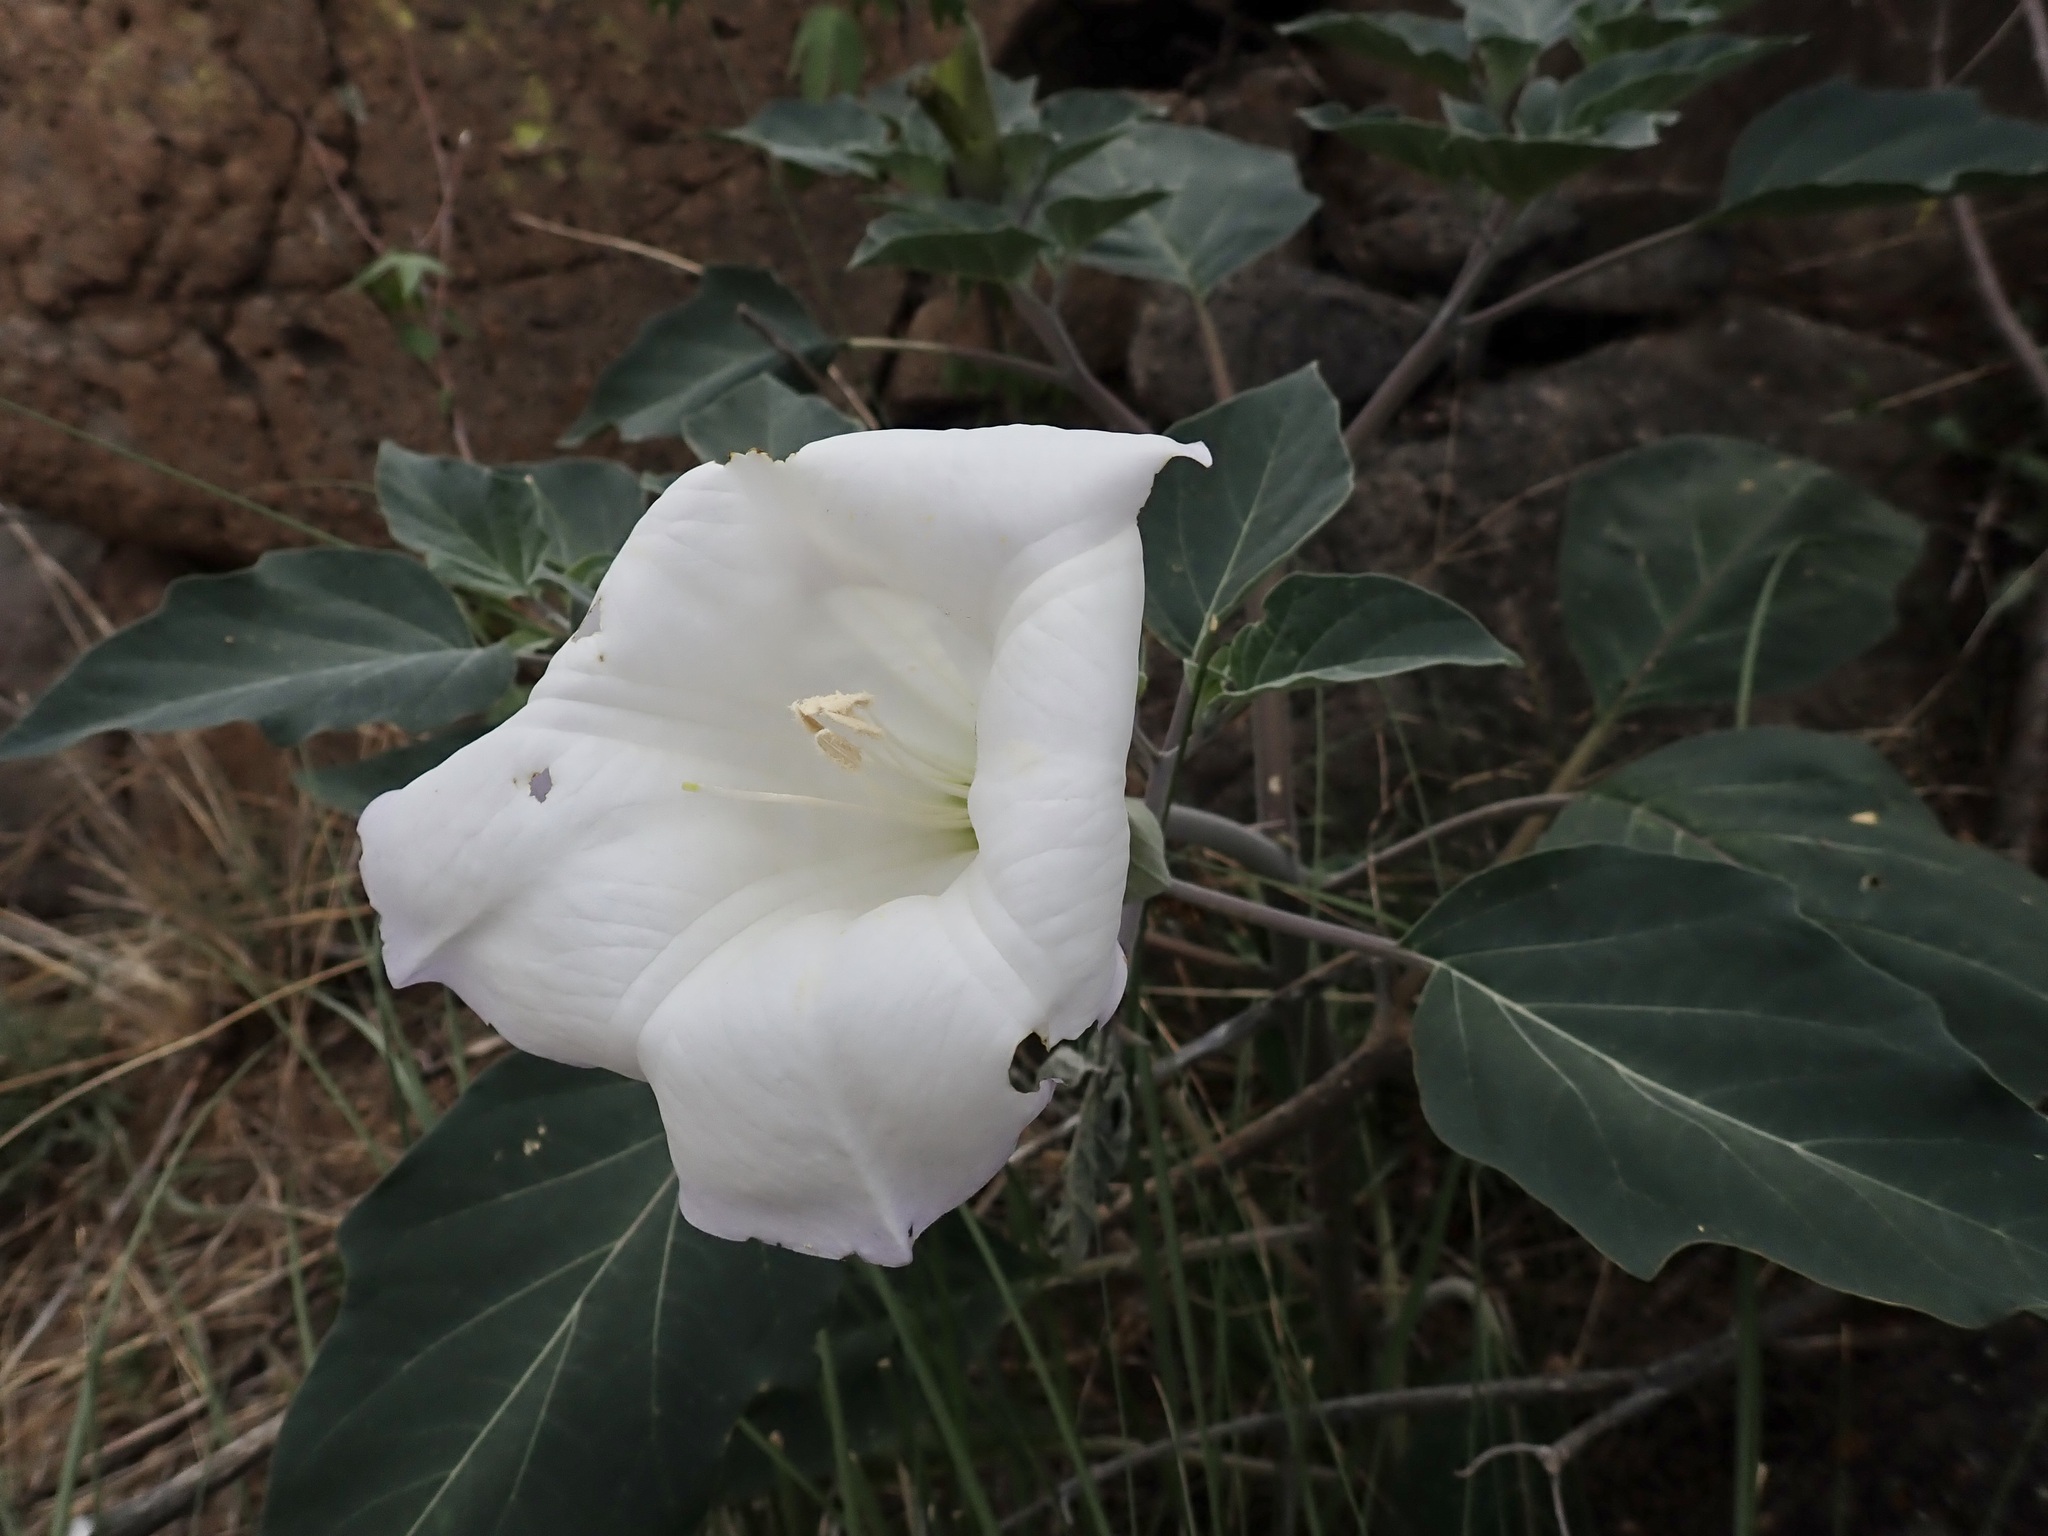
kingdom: Plantae
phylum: Tracheophyta
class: Magnoliopsida
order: Solanales
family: Solanaceae
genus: Datura
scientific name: Datura wrightii
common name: Sacred thorn-apple
